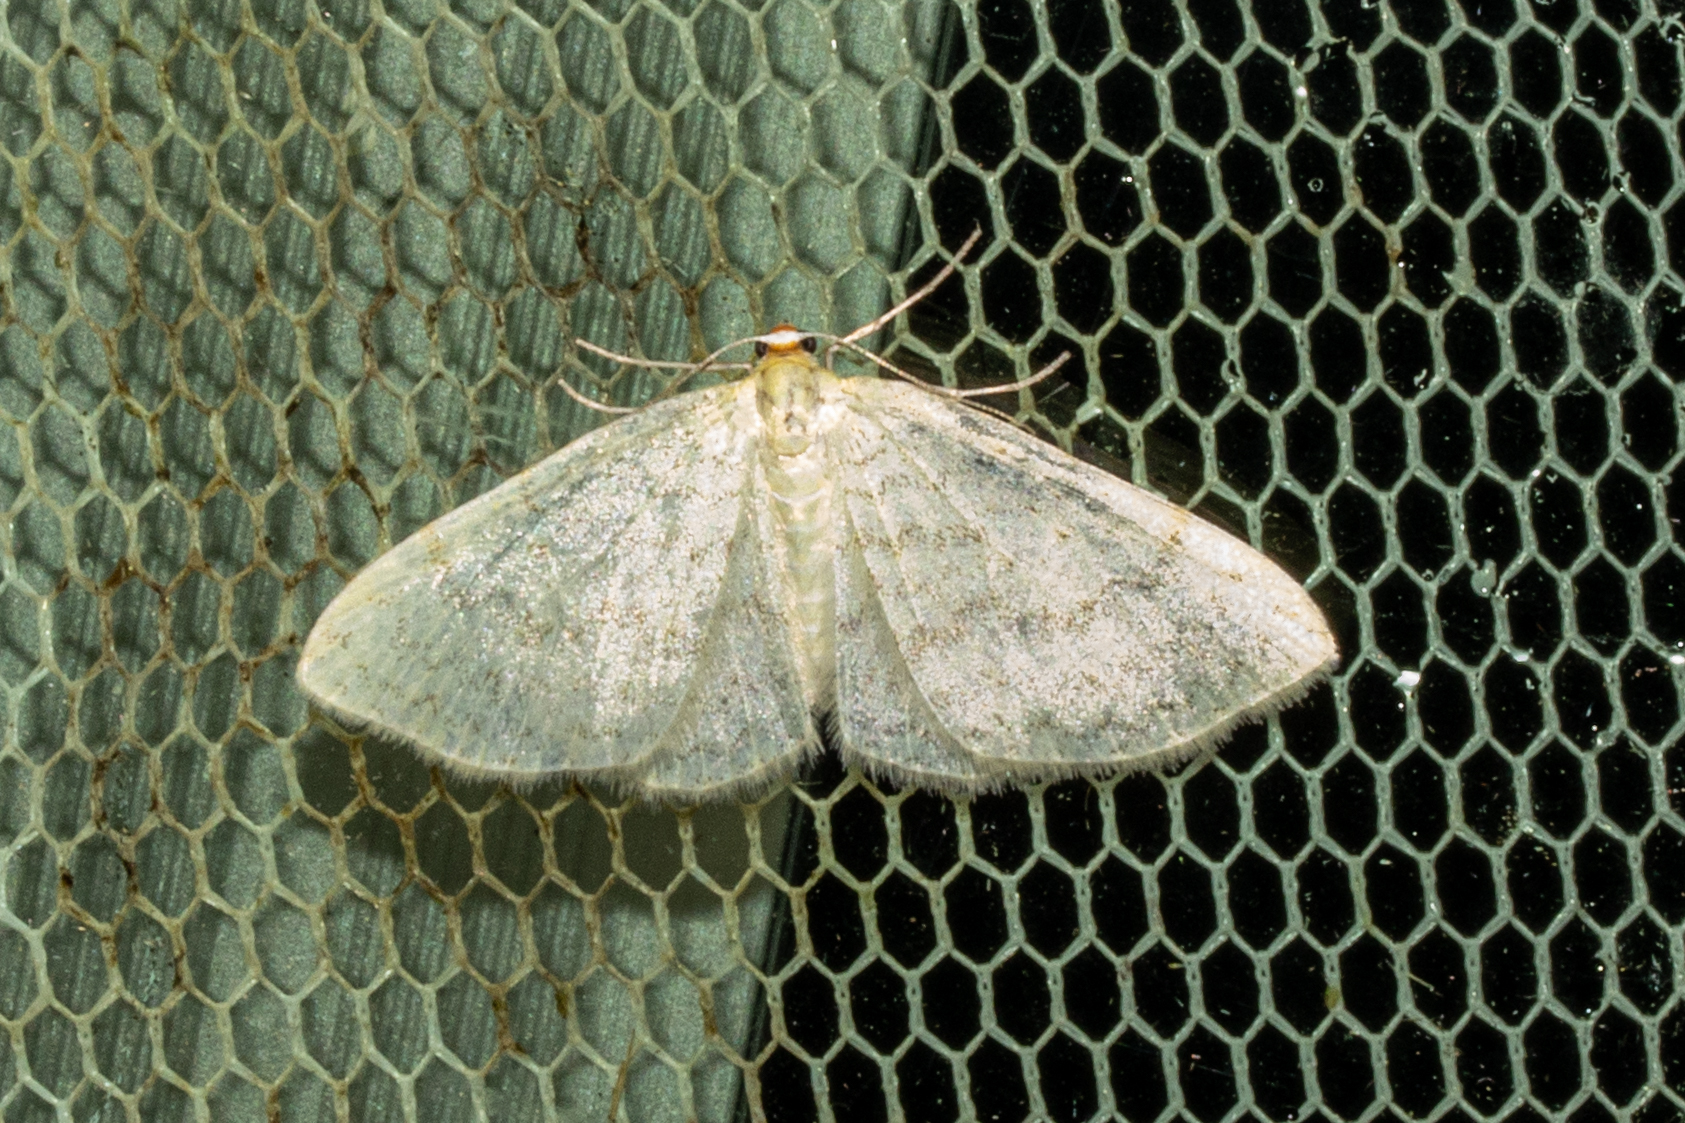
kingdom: Animalia
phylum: Arthropoda
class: Insecta
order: Lepidoptera
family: Geometridae
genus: Epiphryne
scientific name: Epiphryne undosata
